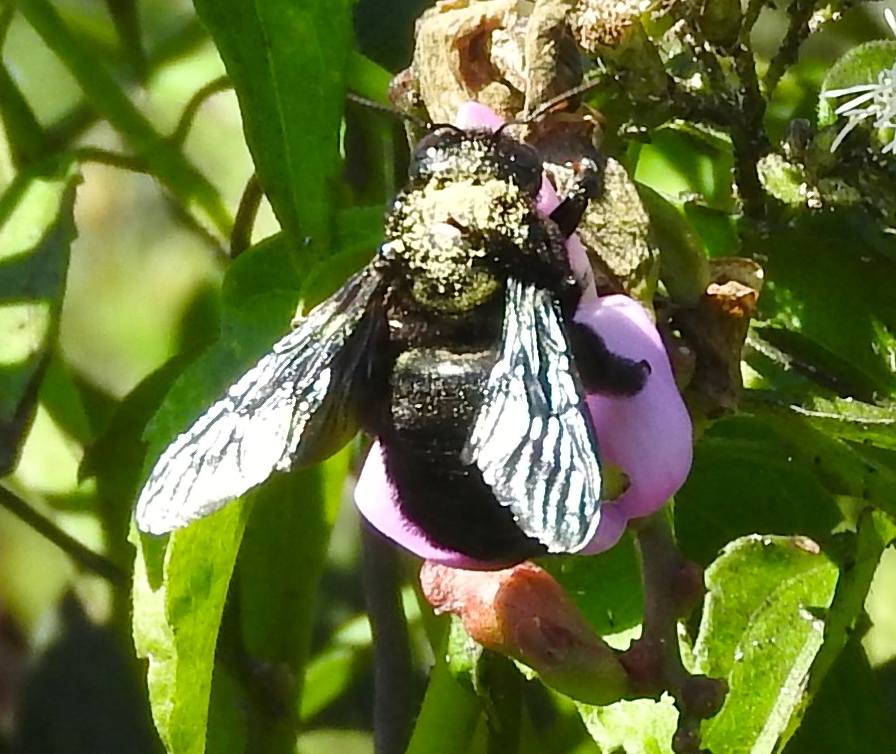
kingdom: Animalia
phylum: Arthropoda
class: Insecta
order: Hymenoptera
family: Apidae
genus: Xylocopa
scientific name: Xylocopa
